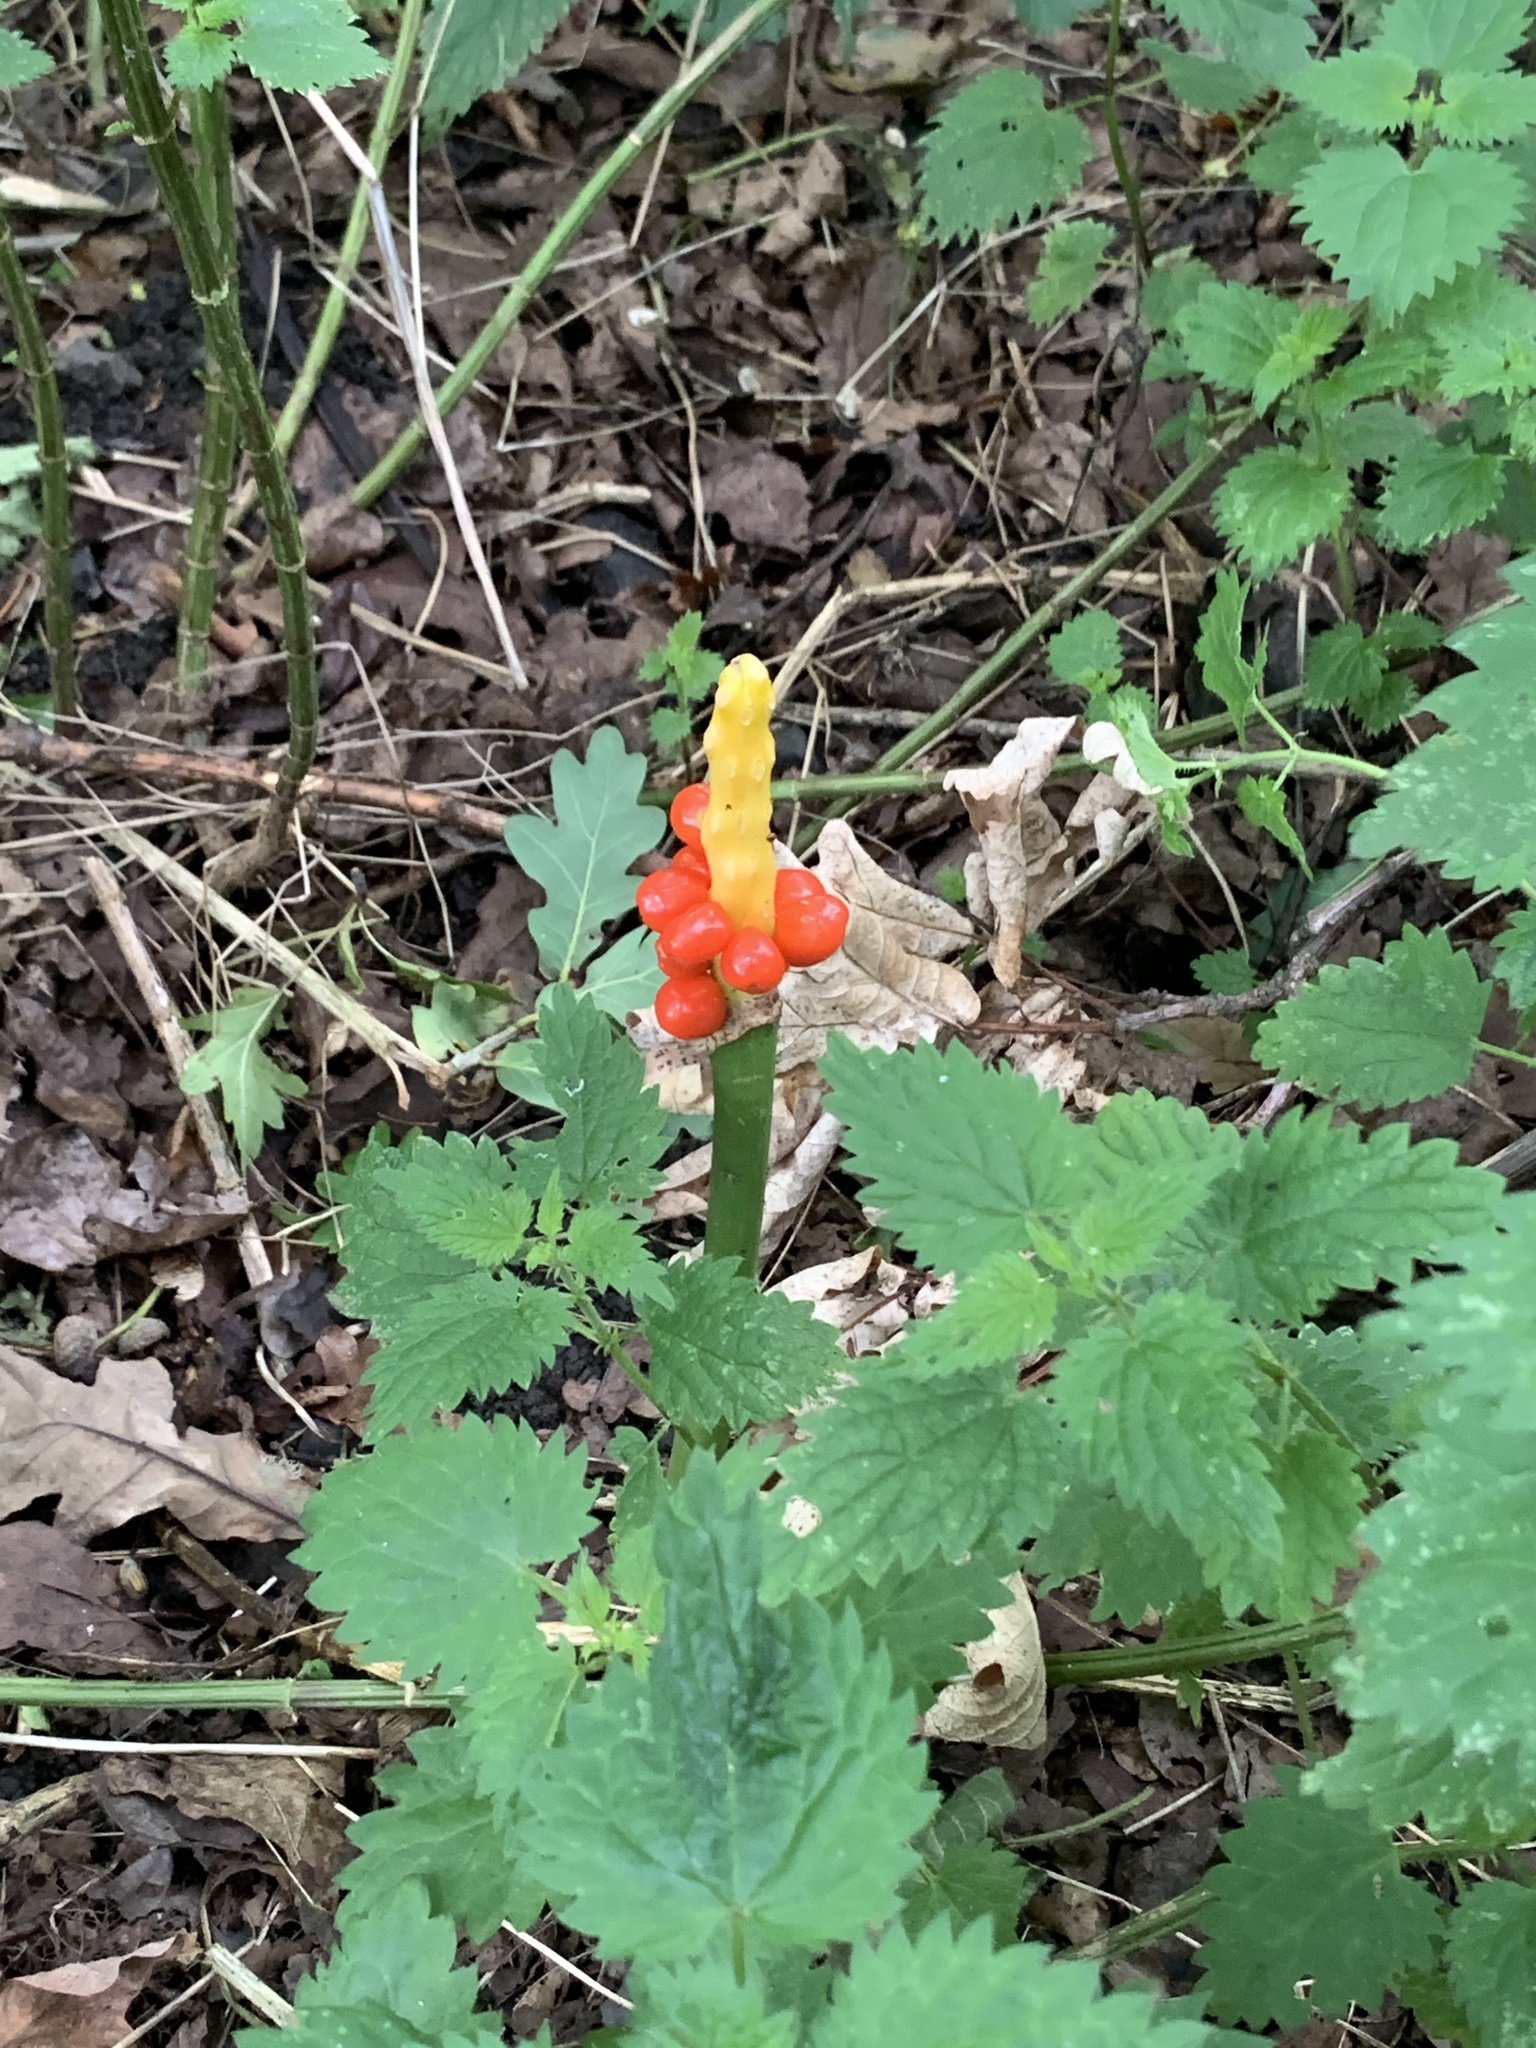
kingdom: Plantae
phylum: Tracheophyta
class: Liliopsida
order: Alismatales
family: Araceae
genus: Arum
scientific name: Arum maculatum
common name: Lords-and-ladies
